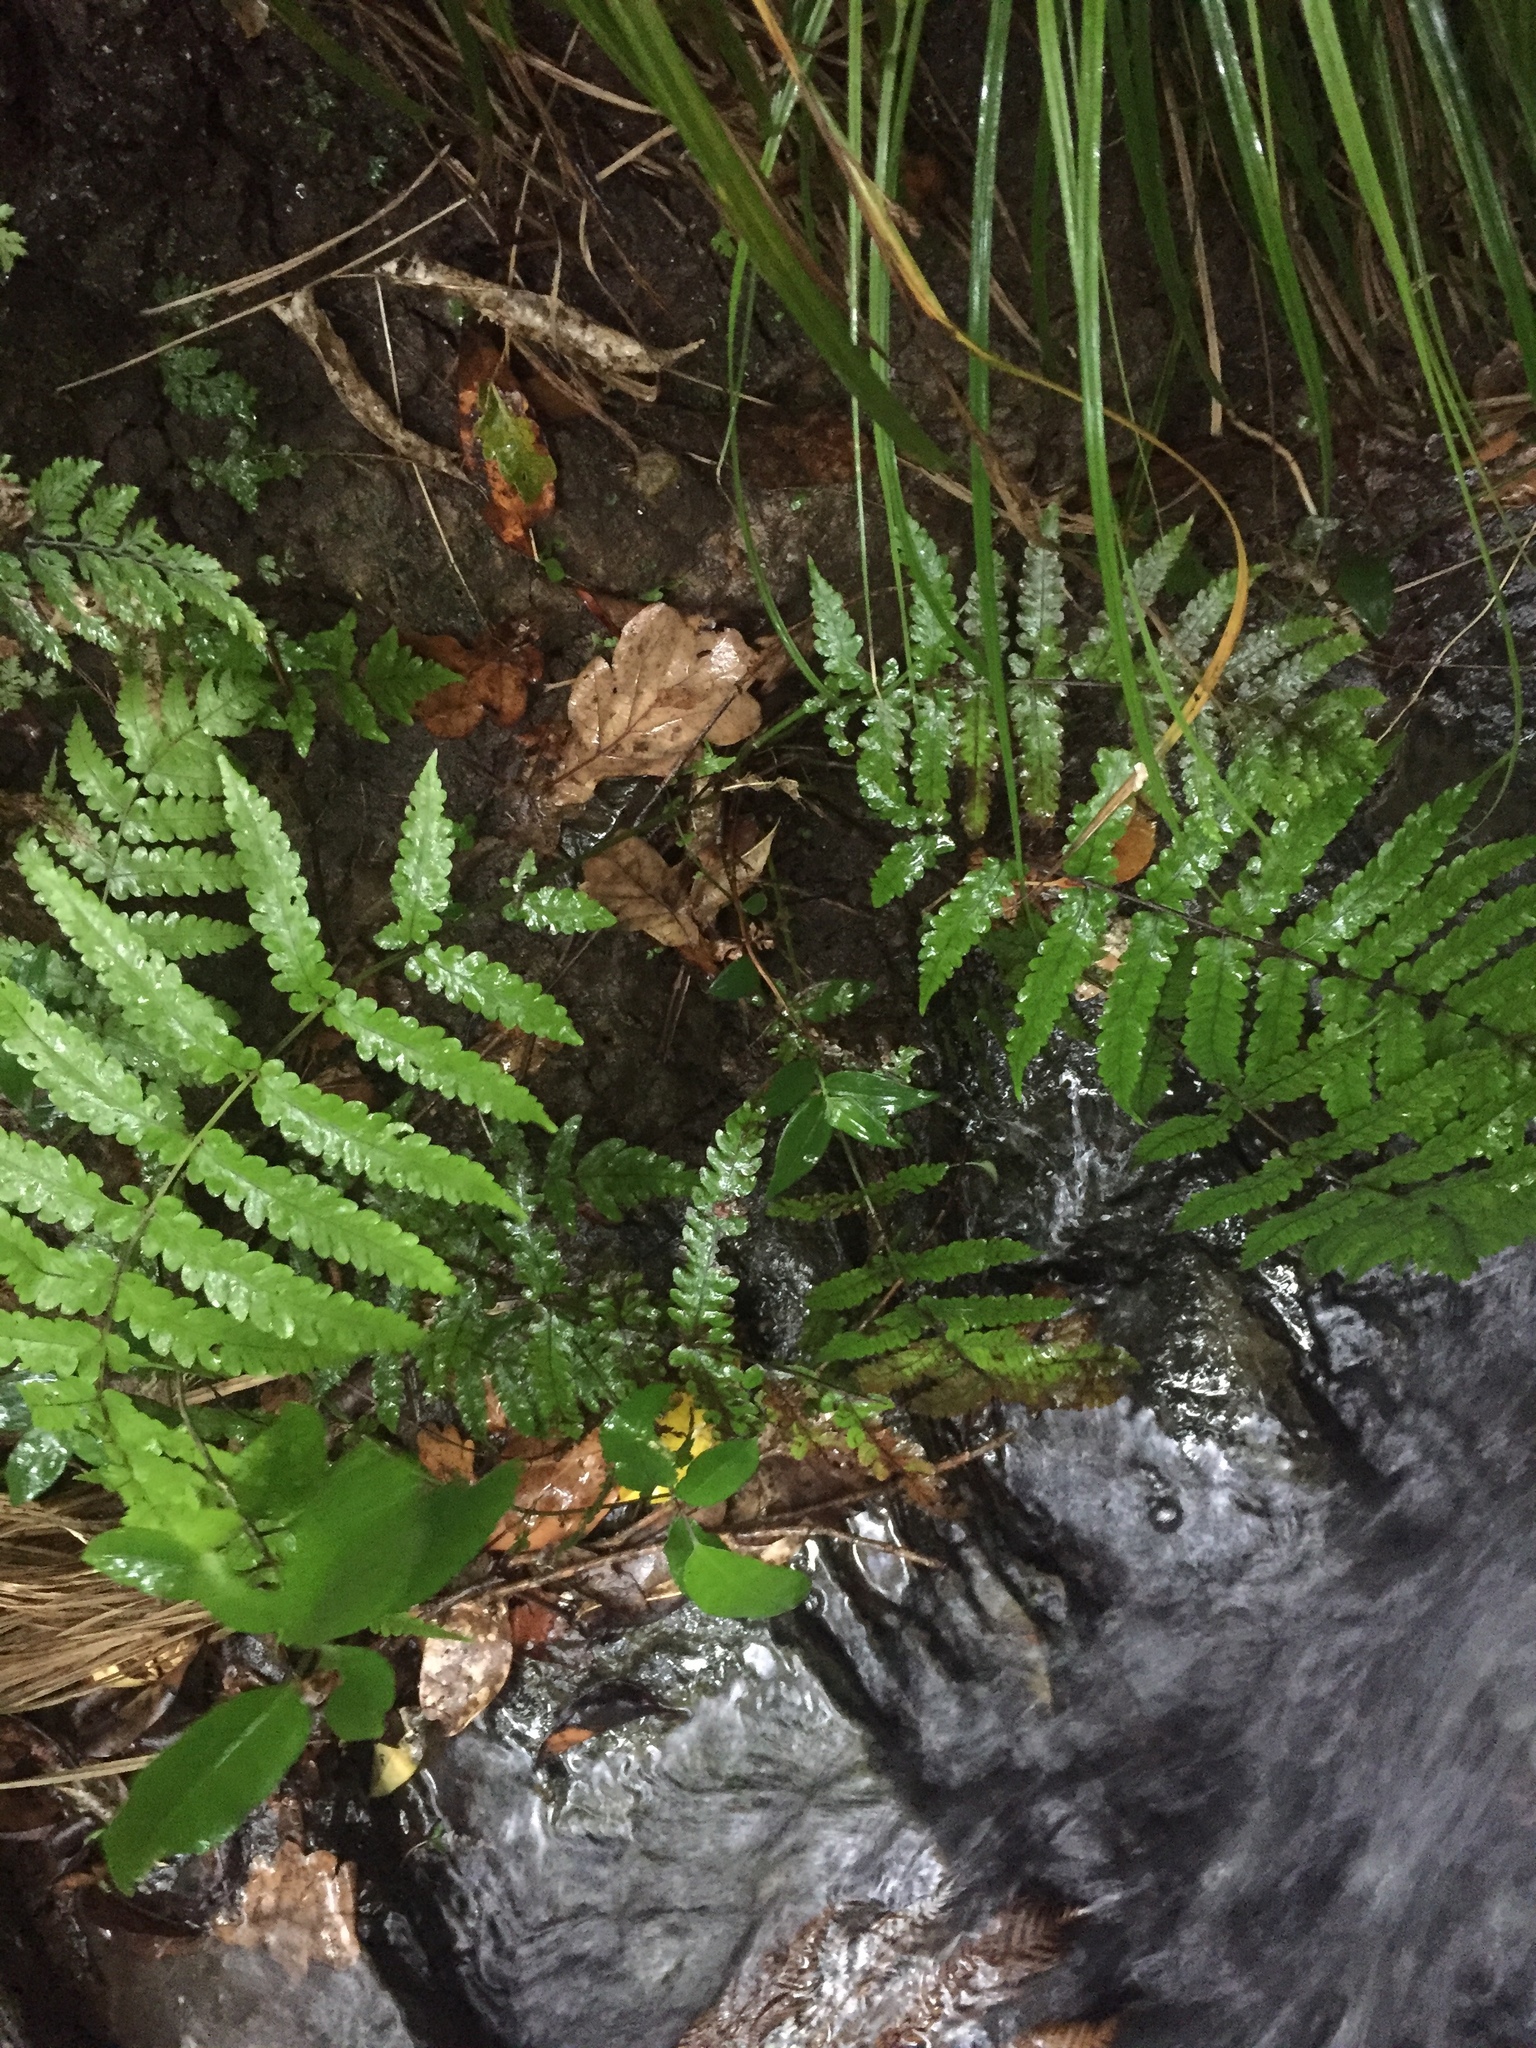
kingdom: Plantae
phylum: Tracheophyta
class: Polypodiopsida
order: Polypodiales
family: Thelypteridaceae
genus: Pakau
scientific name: Pakau pennigera
